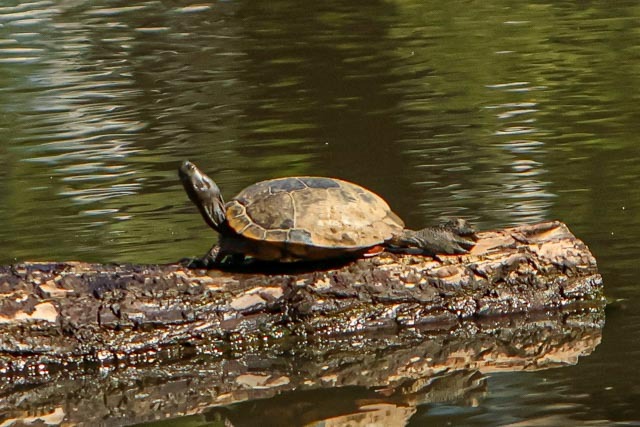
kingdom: Animalia
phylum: Chordata
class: Testudines
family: Emydidae
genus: Trachemys
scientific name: Trachemys scripta
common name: Slider
